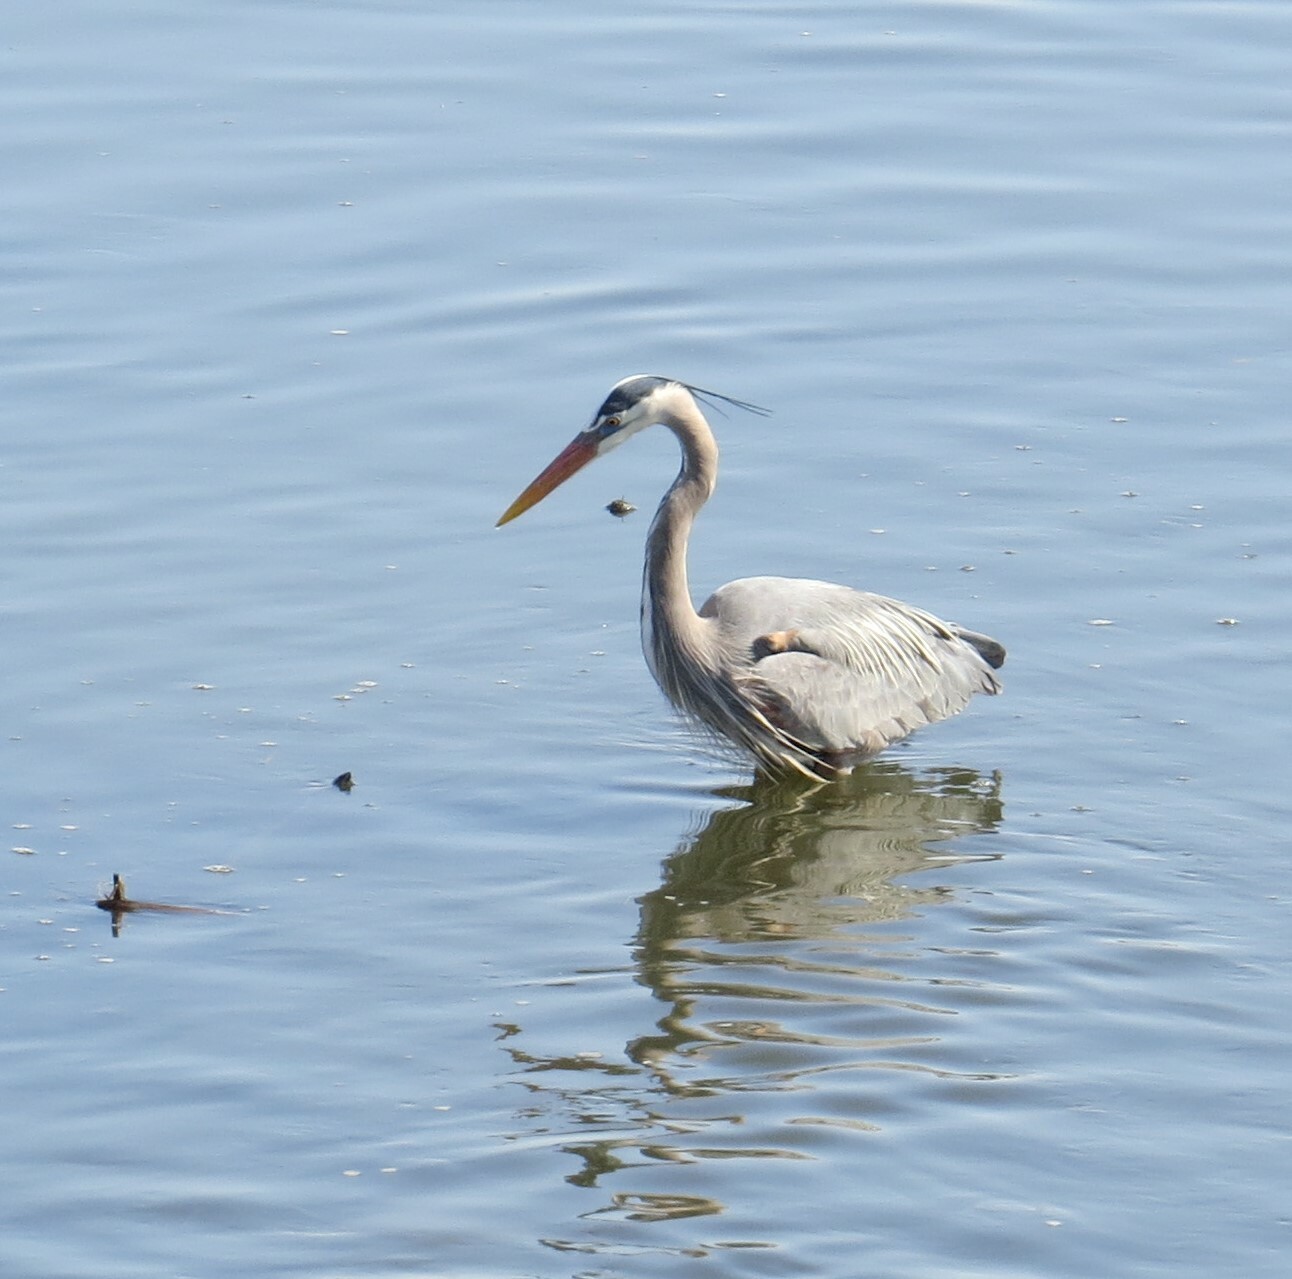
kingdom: Animalia
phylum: Chordata
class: Aves
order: Pelecaniformes
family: Ardeidae
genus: Ardea
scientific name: Ardea herodias
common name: Great blue heron
